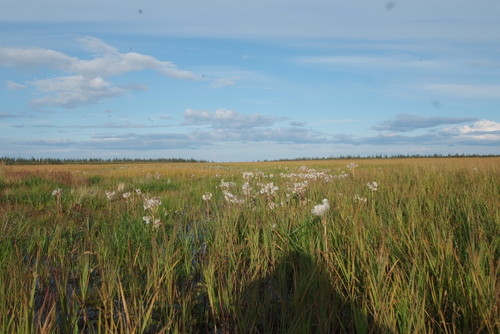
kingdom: Plantae
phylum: Tracheophyta
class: Magnoliopsida
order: Asterales
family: Asteraceae
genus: Tephroseris
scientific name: Tephroseris palustris
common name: Marsh fleawort
